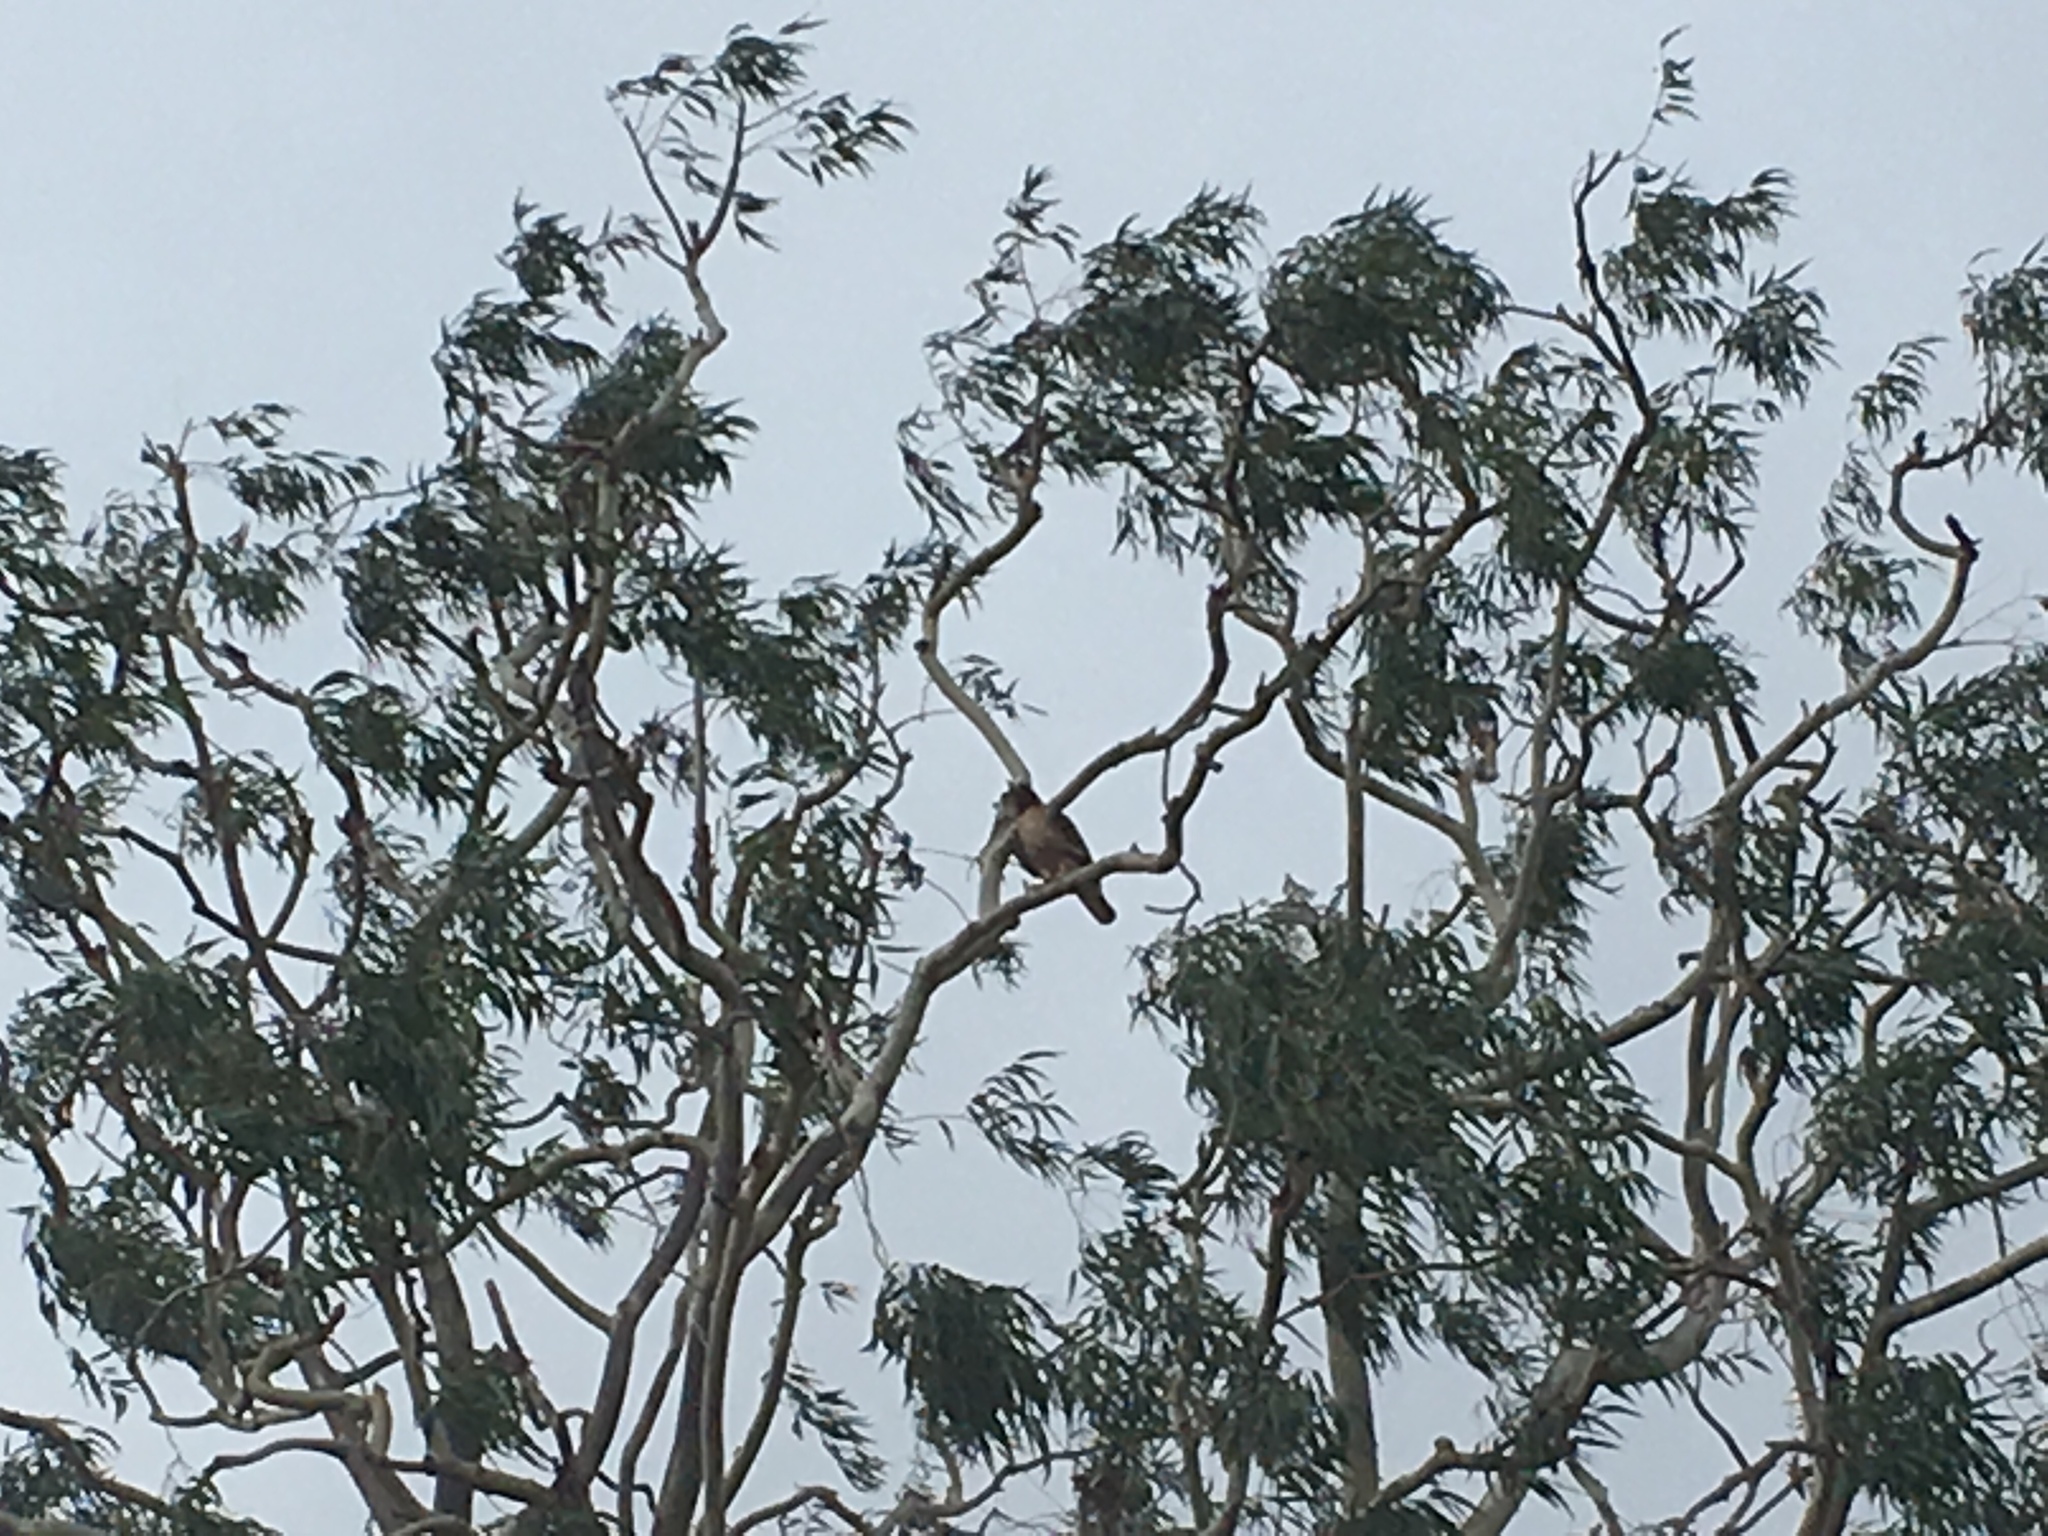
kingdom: Animalia
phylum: Chordata
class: Aves
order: Accipitriformes
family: Accipitridae
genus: Buteo
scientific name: Buteo jamaicensis
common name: Red-tailed hawk
